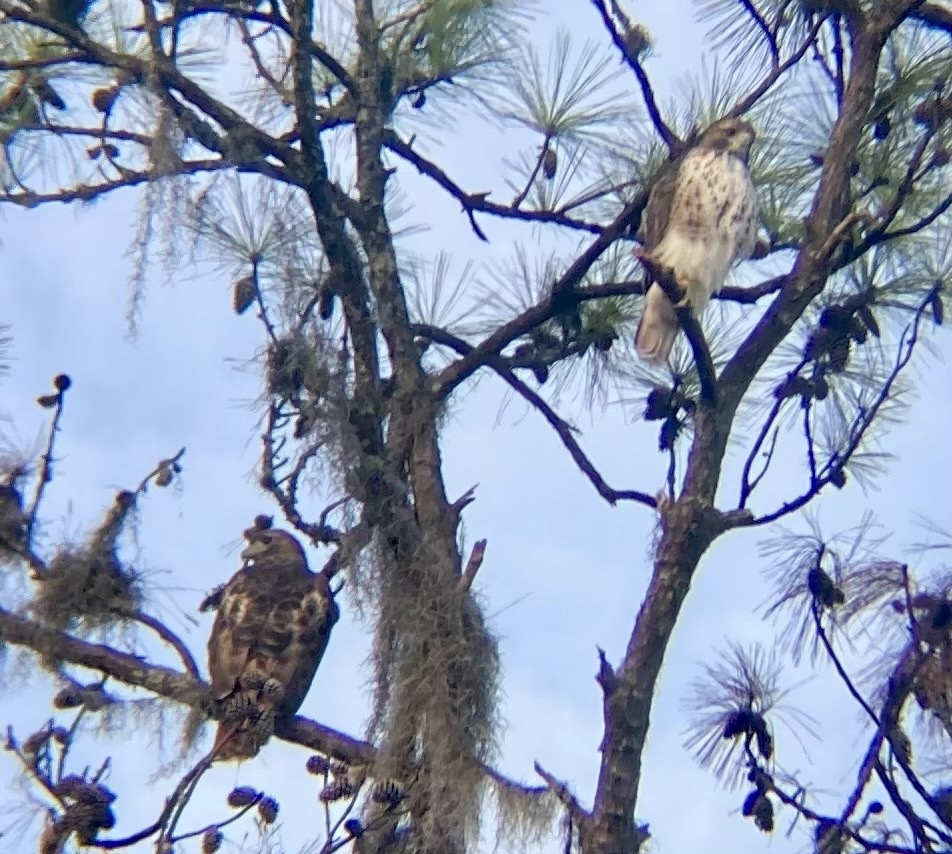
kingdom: Animalia
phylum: Chordata
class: Aves
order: Accipitriformes
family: Accipitridae
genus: Buteo
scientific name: Buteo lineatus
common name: Red-shouldered hawk
